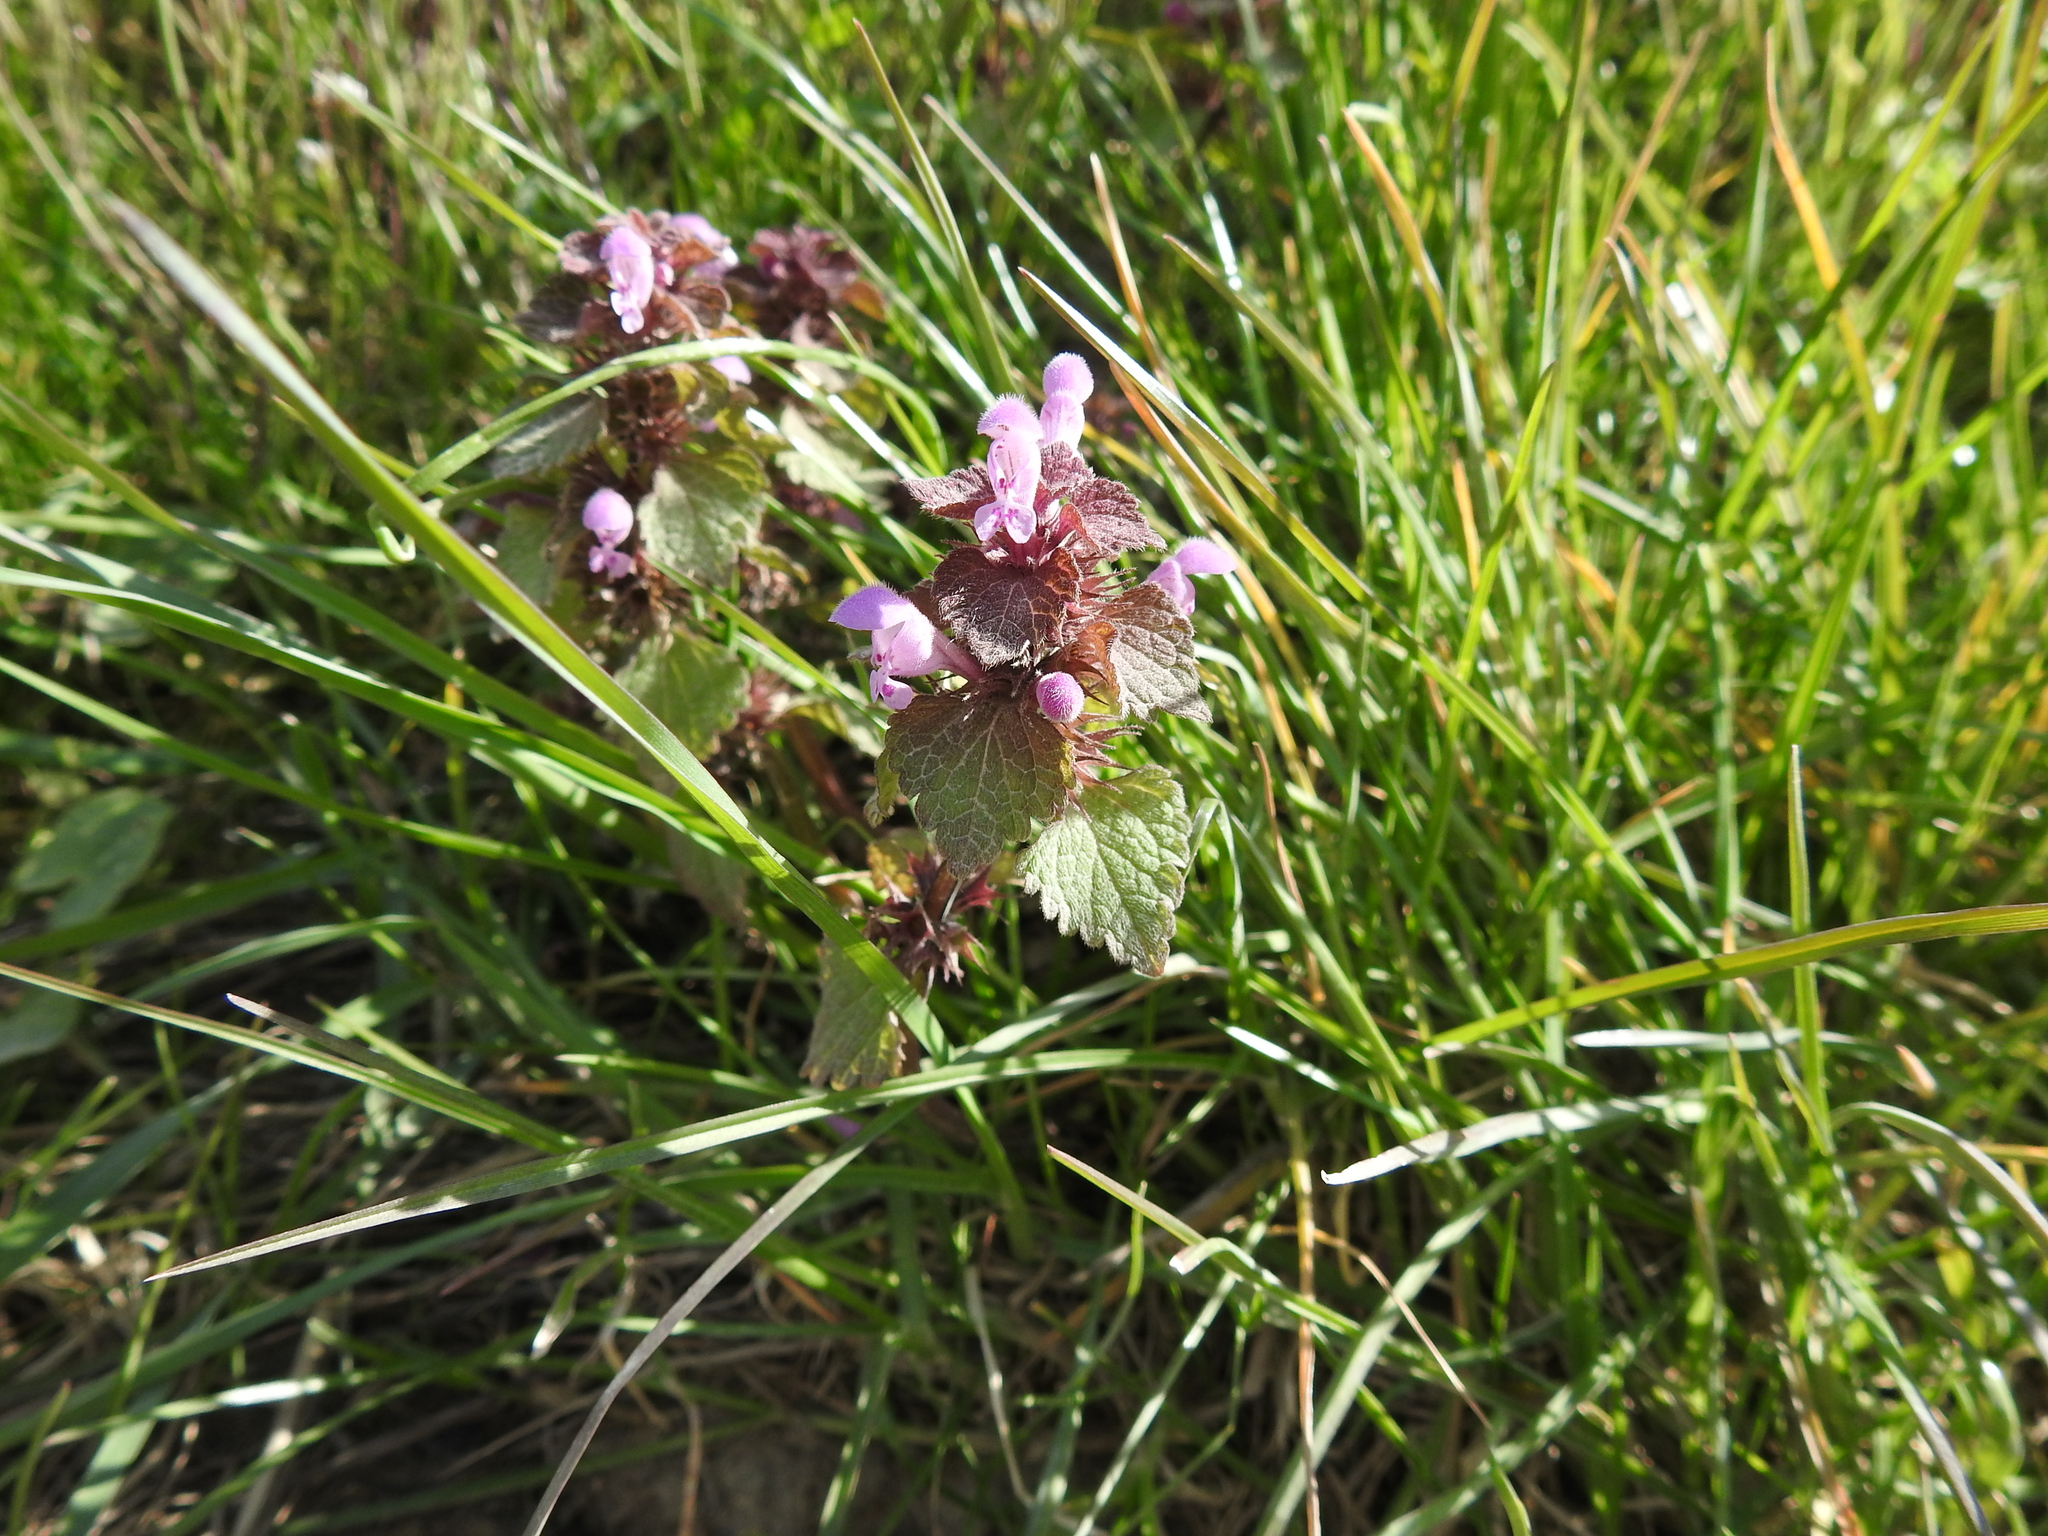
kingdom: Plantae
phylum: Tracheophyta
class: Magnoliopsida
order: Lamiales
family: Lamiaceae
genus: Lamium
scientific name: Lamium purpureum
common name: Red dead-nettle
